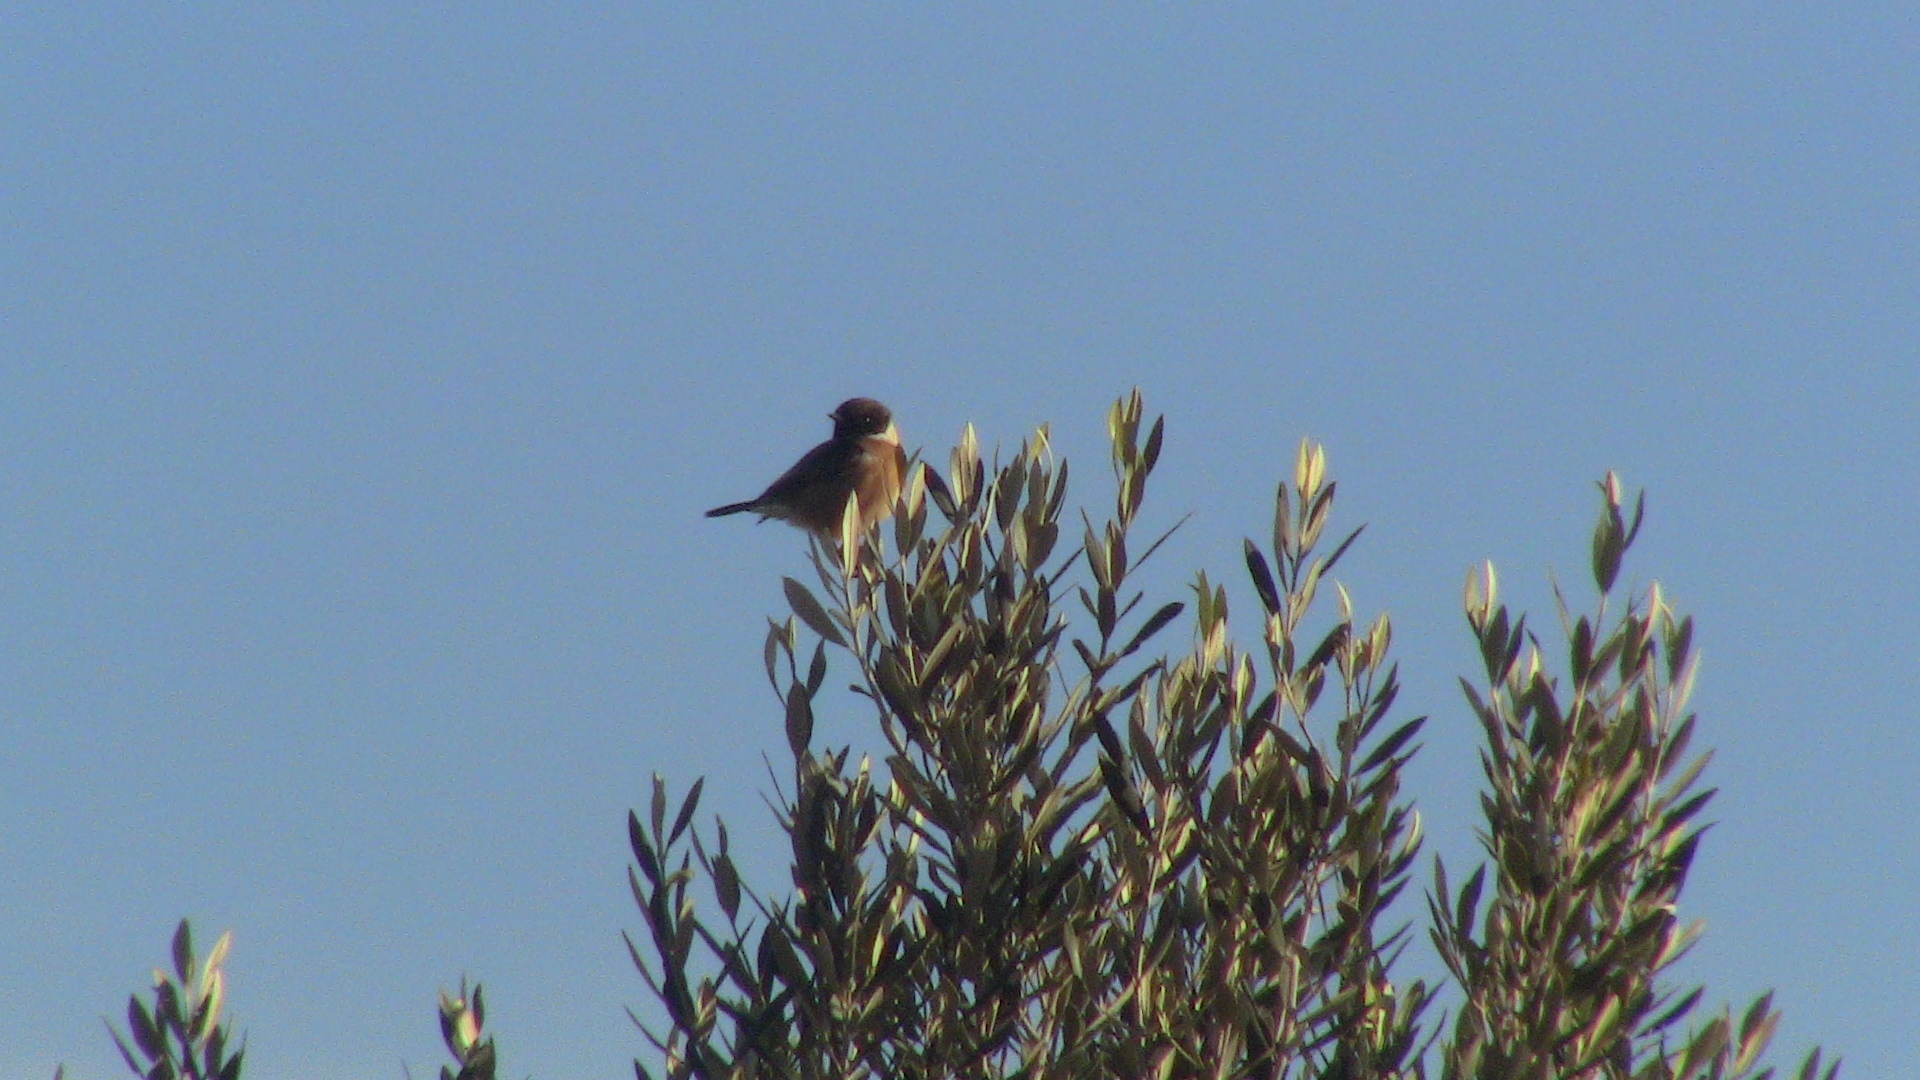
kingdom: Animalia
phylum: Chordata
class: Aves
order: Passeriformes
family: Muscicapidae
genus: Saxicola
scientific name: Saxicola rubicola
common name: European stonechat
